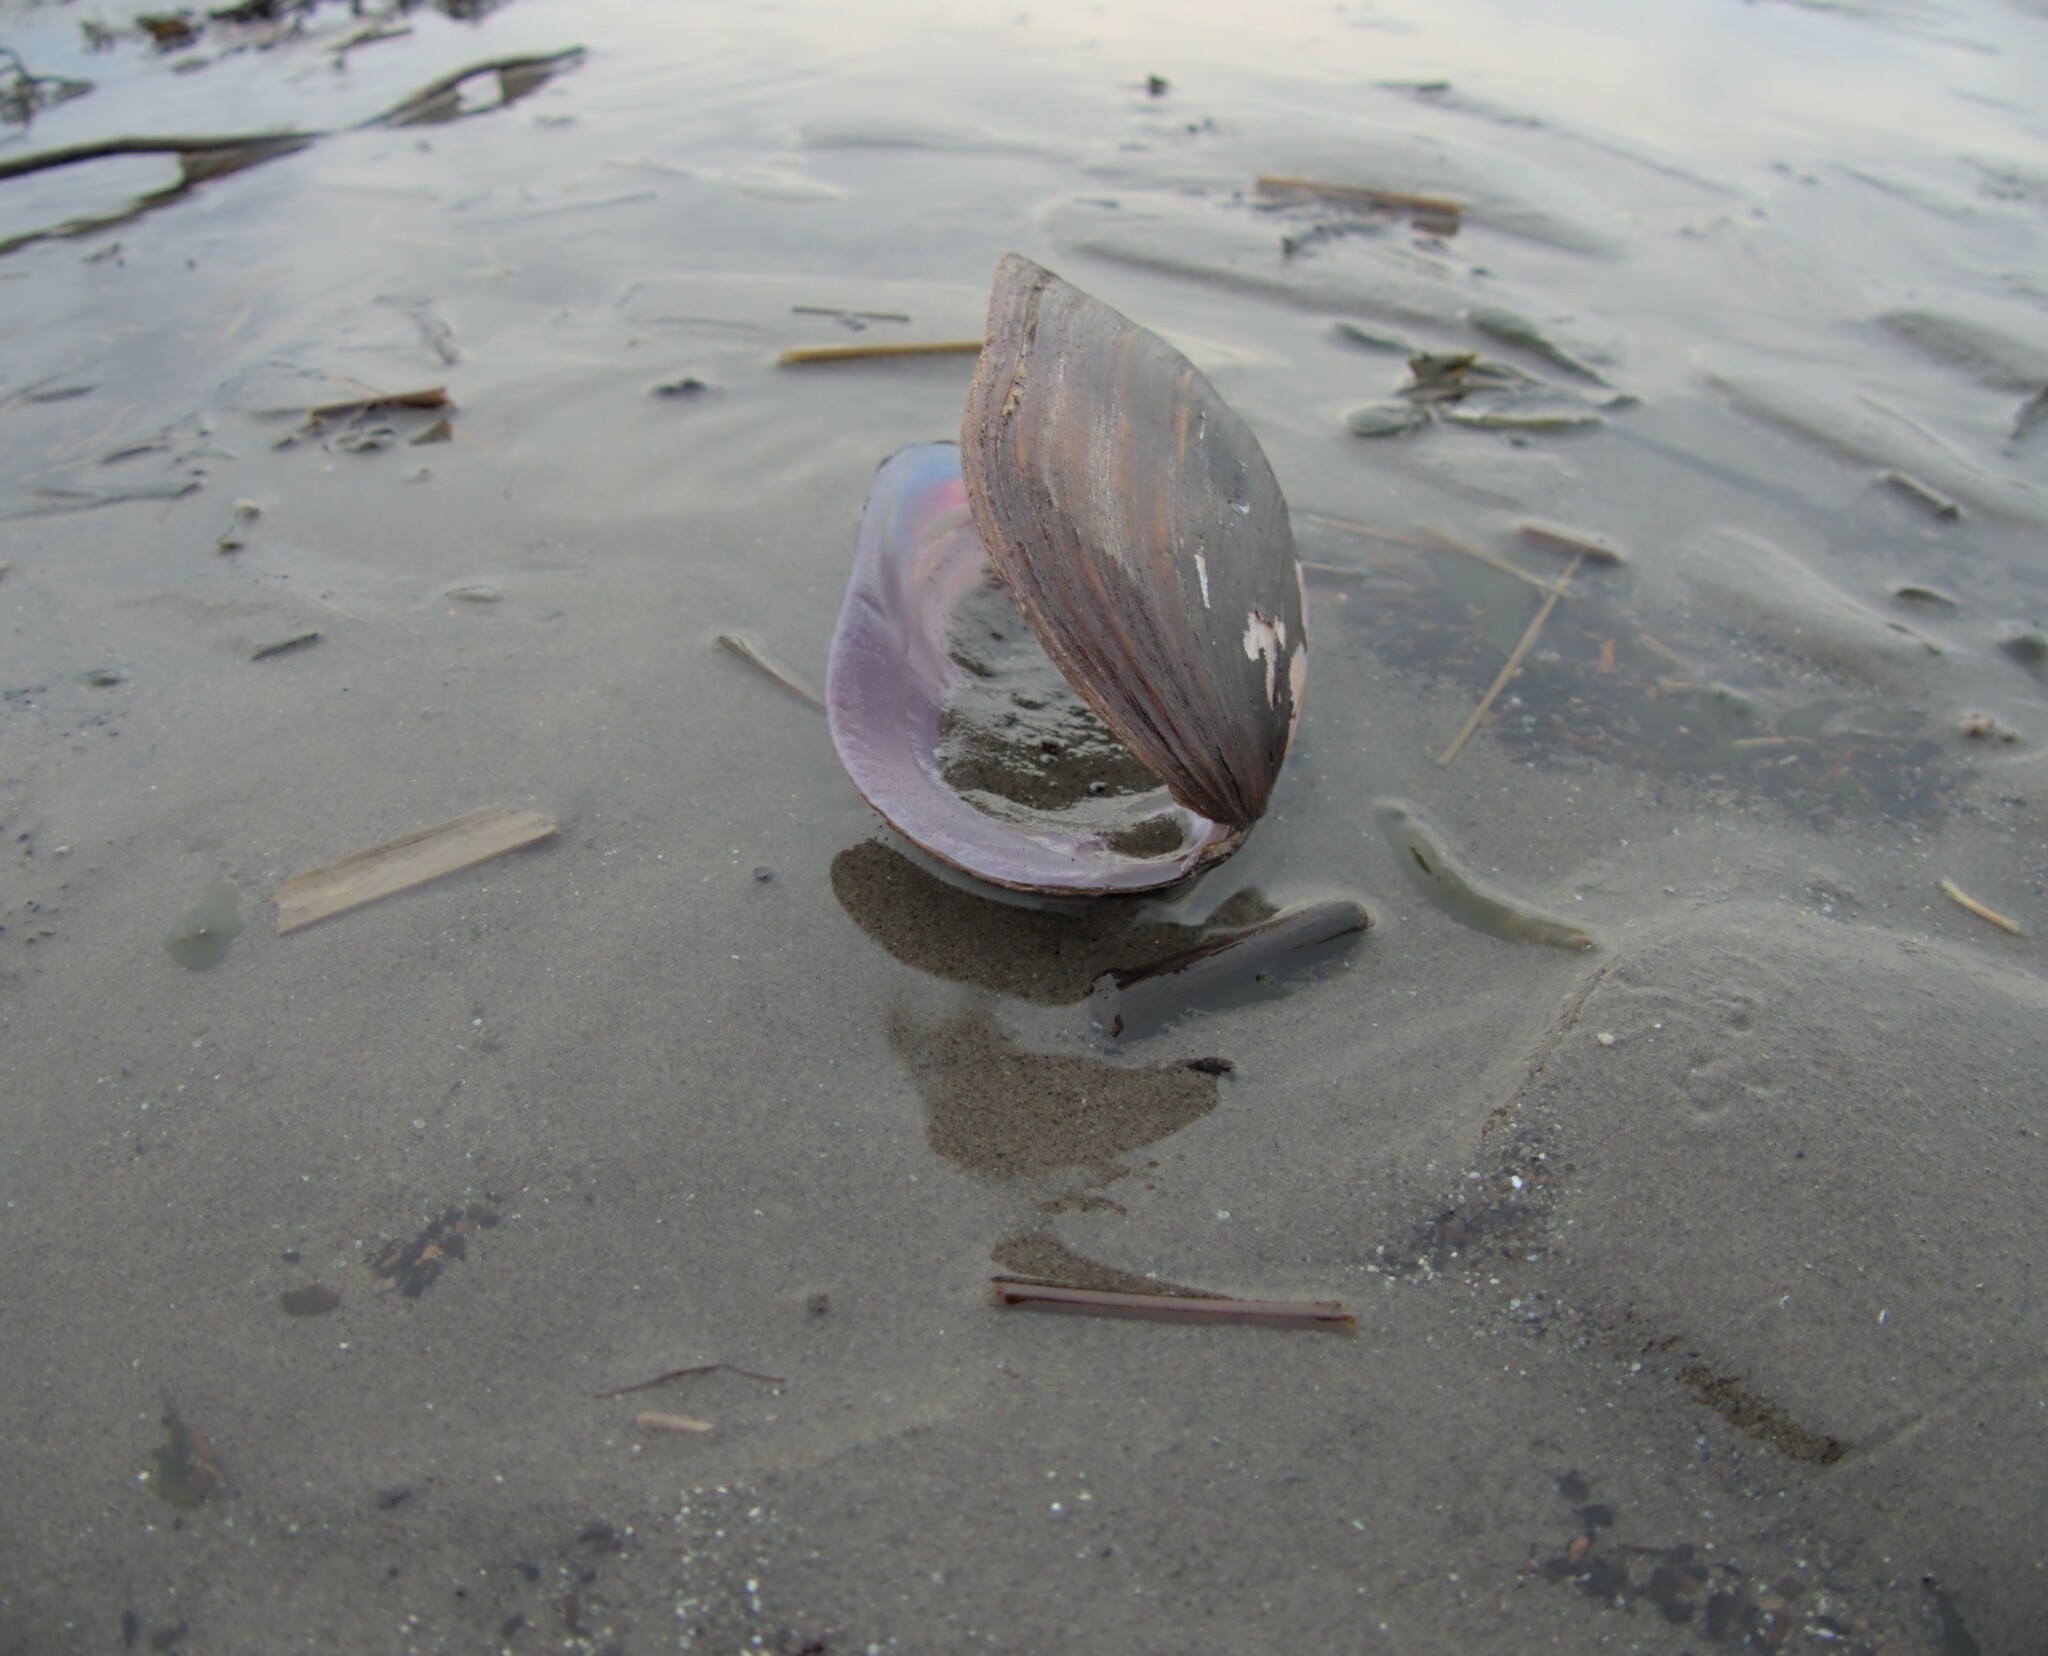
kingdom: Animalia
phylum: Mollusca
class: Bivalvia
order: Unionida
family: Unionidae
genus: Elliptio
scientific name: Elliptio complanata
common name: Eastern elliptio
